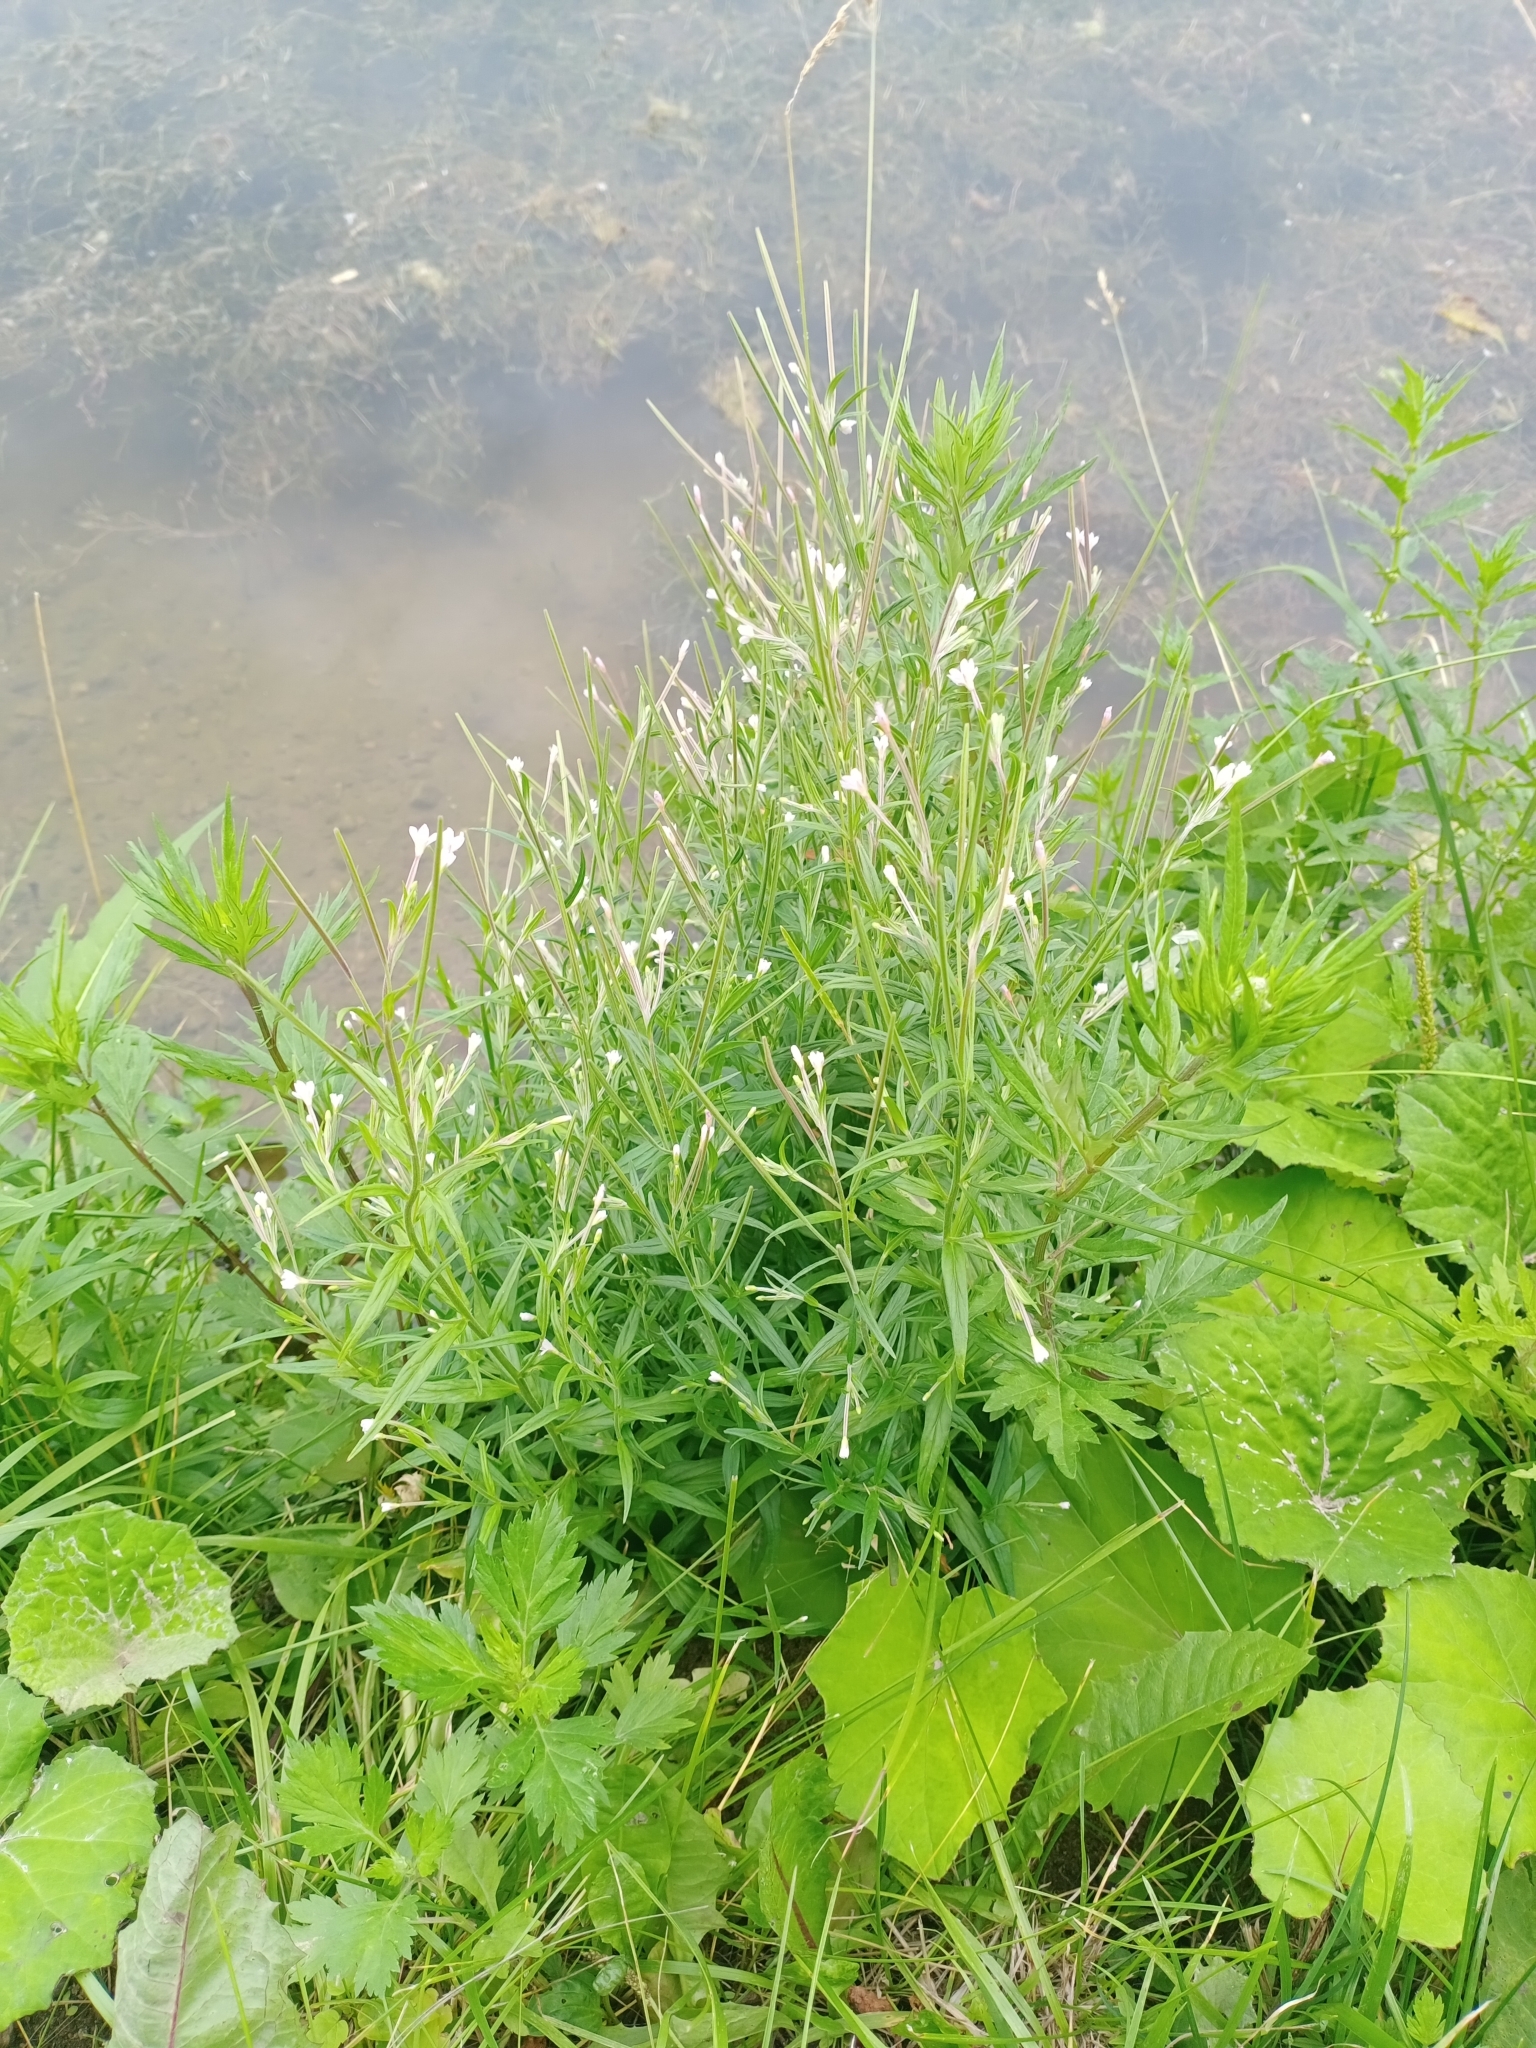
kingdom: Plantae
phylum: Tracheophyta
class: Magnoliopsida
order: Myrtales
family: Onagraceae
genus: Epilobium
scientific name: Epilobium palustre
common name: Marsh willowherb
